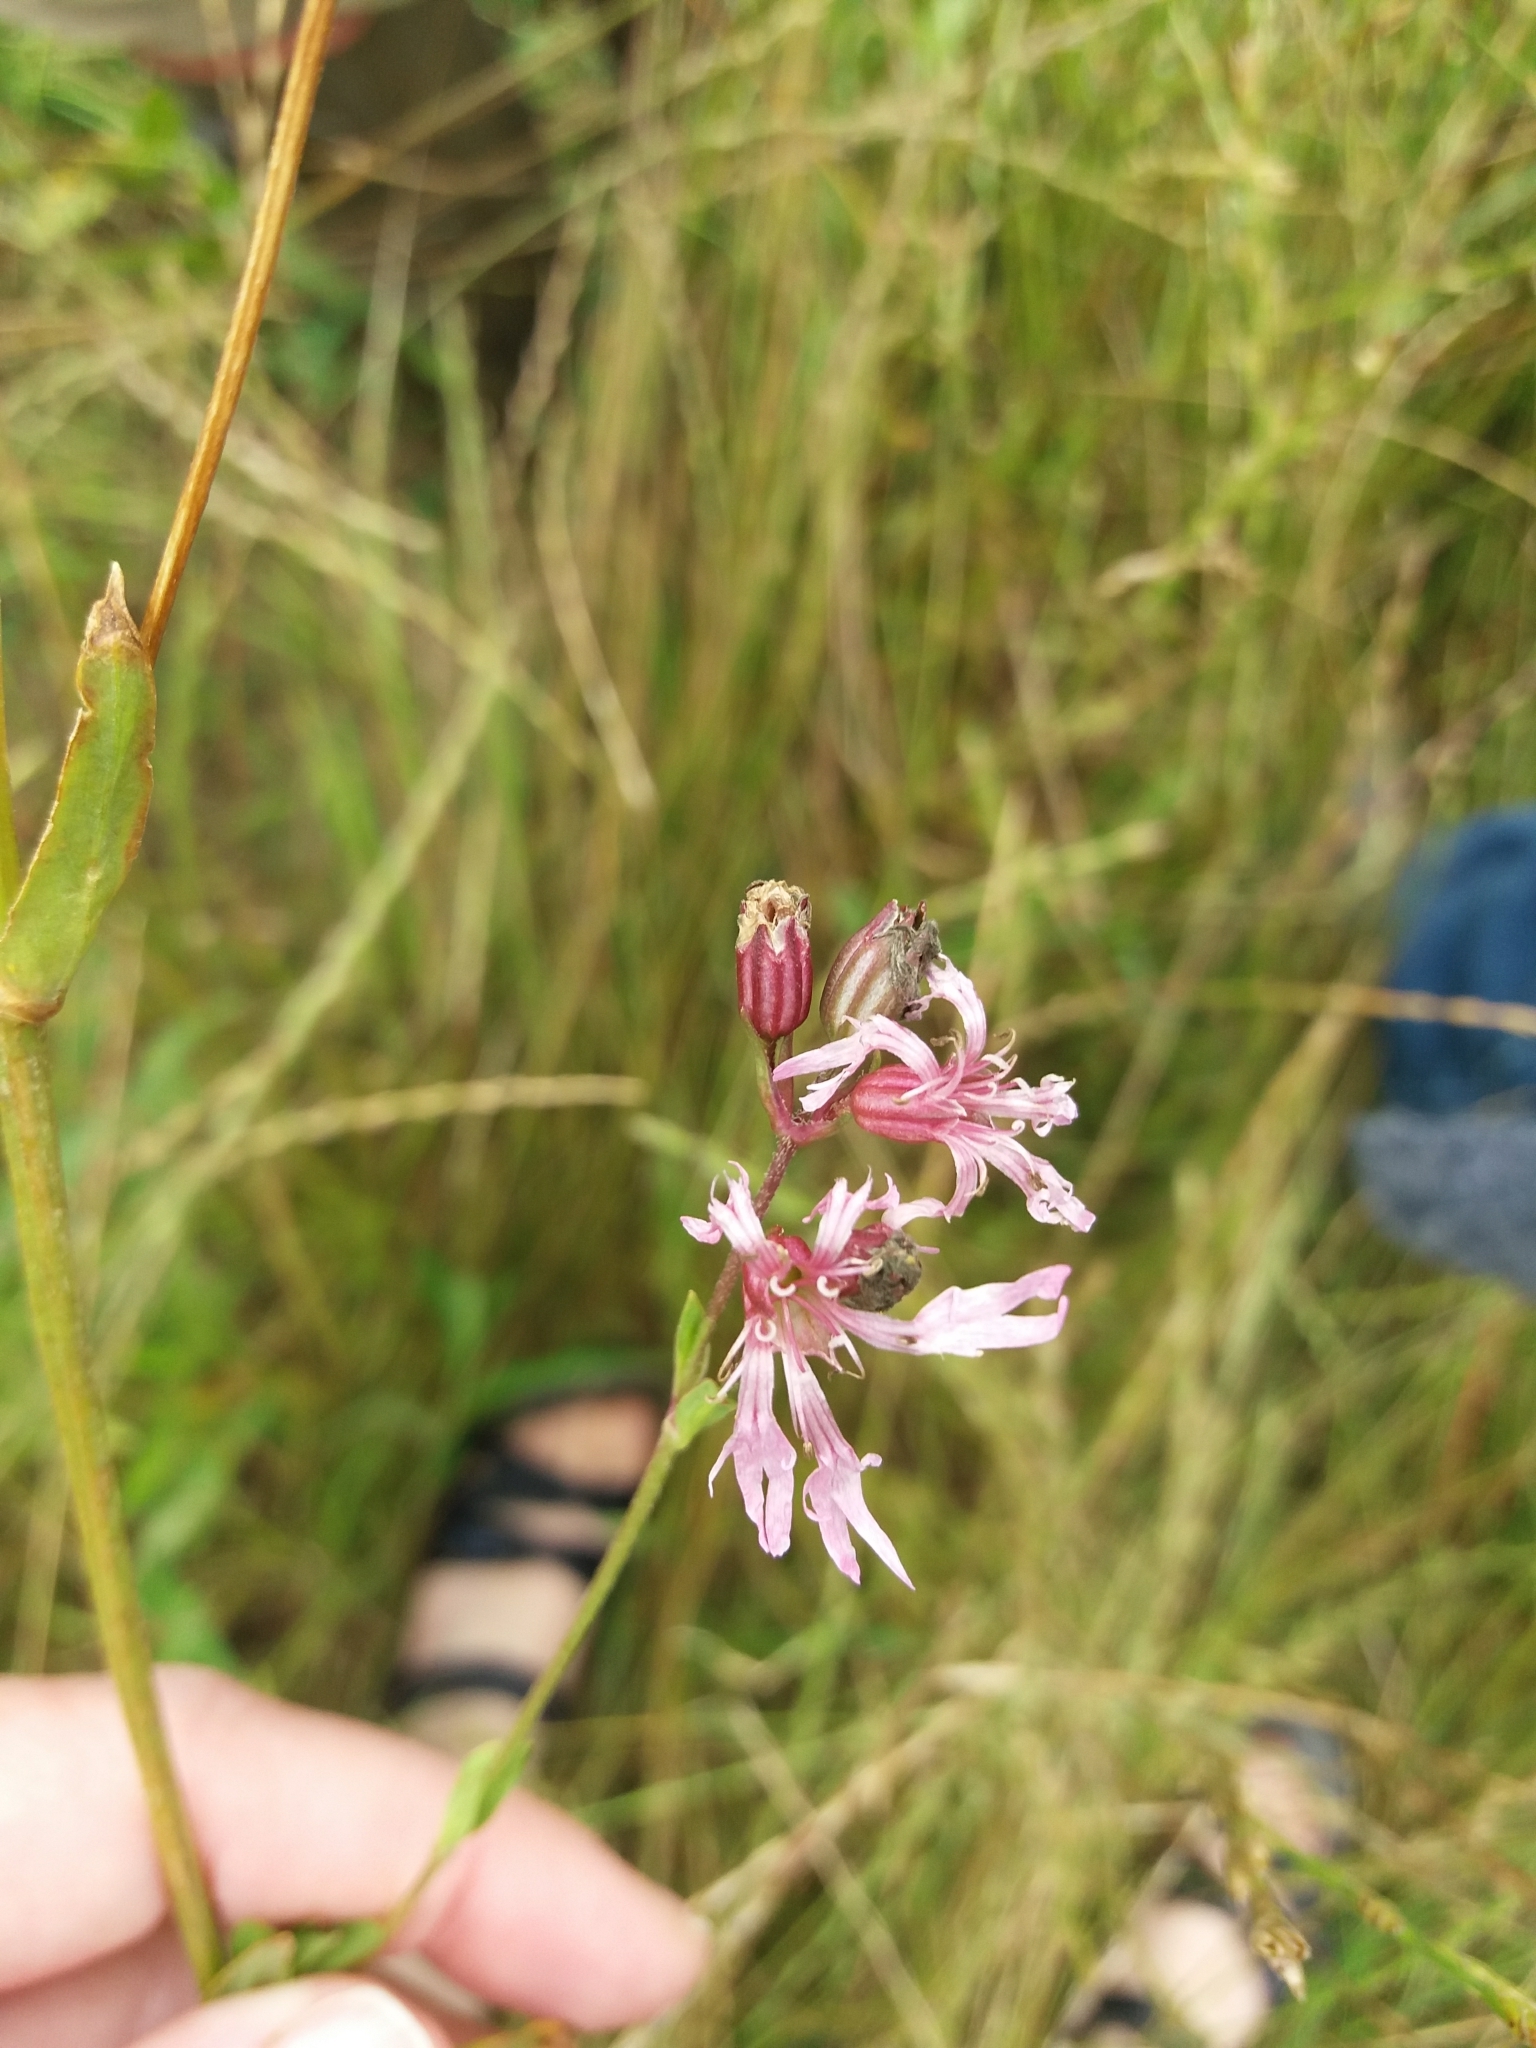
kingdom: Plantae
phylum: Tracheophyta
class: Magnoliopsida
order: Caryophyllales
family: Caryophyllaceae
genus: Silene
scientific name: Silene flos-cuculi
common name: Ragged-robin
